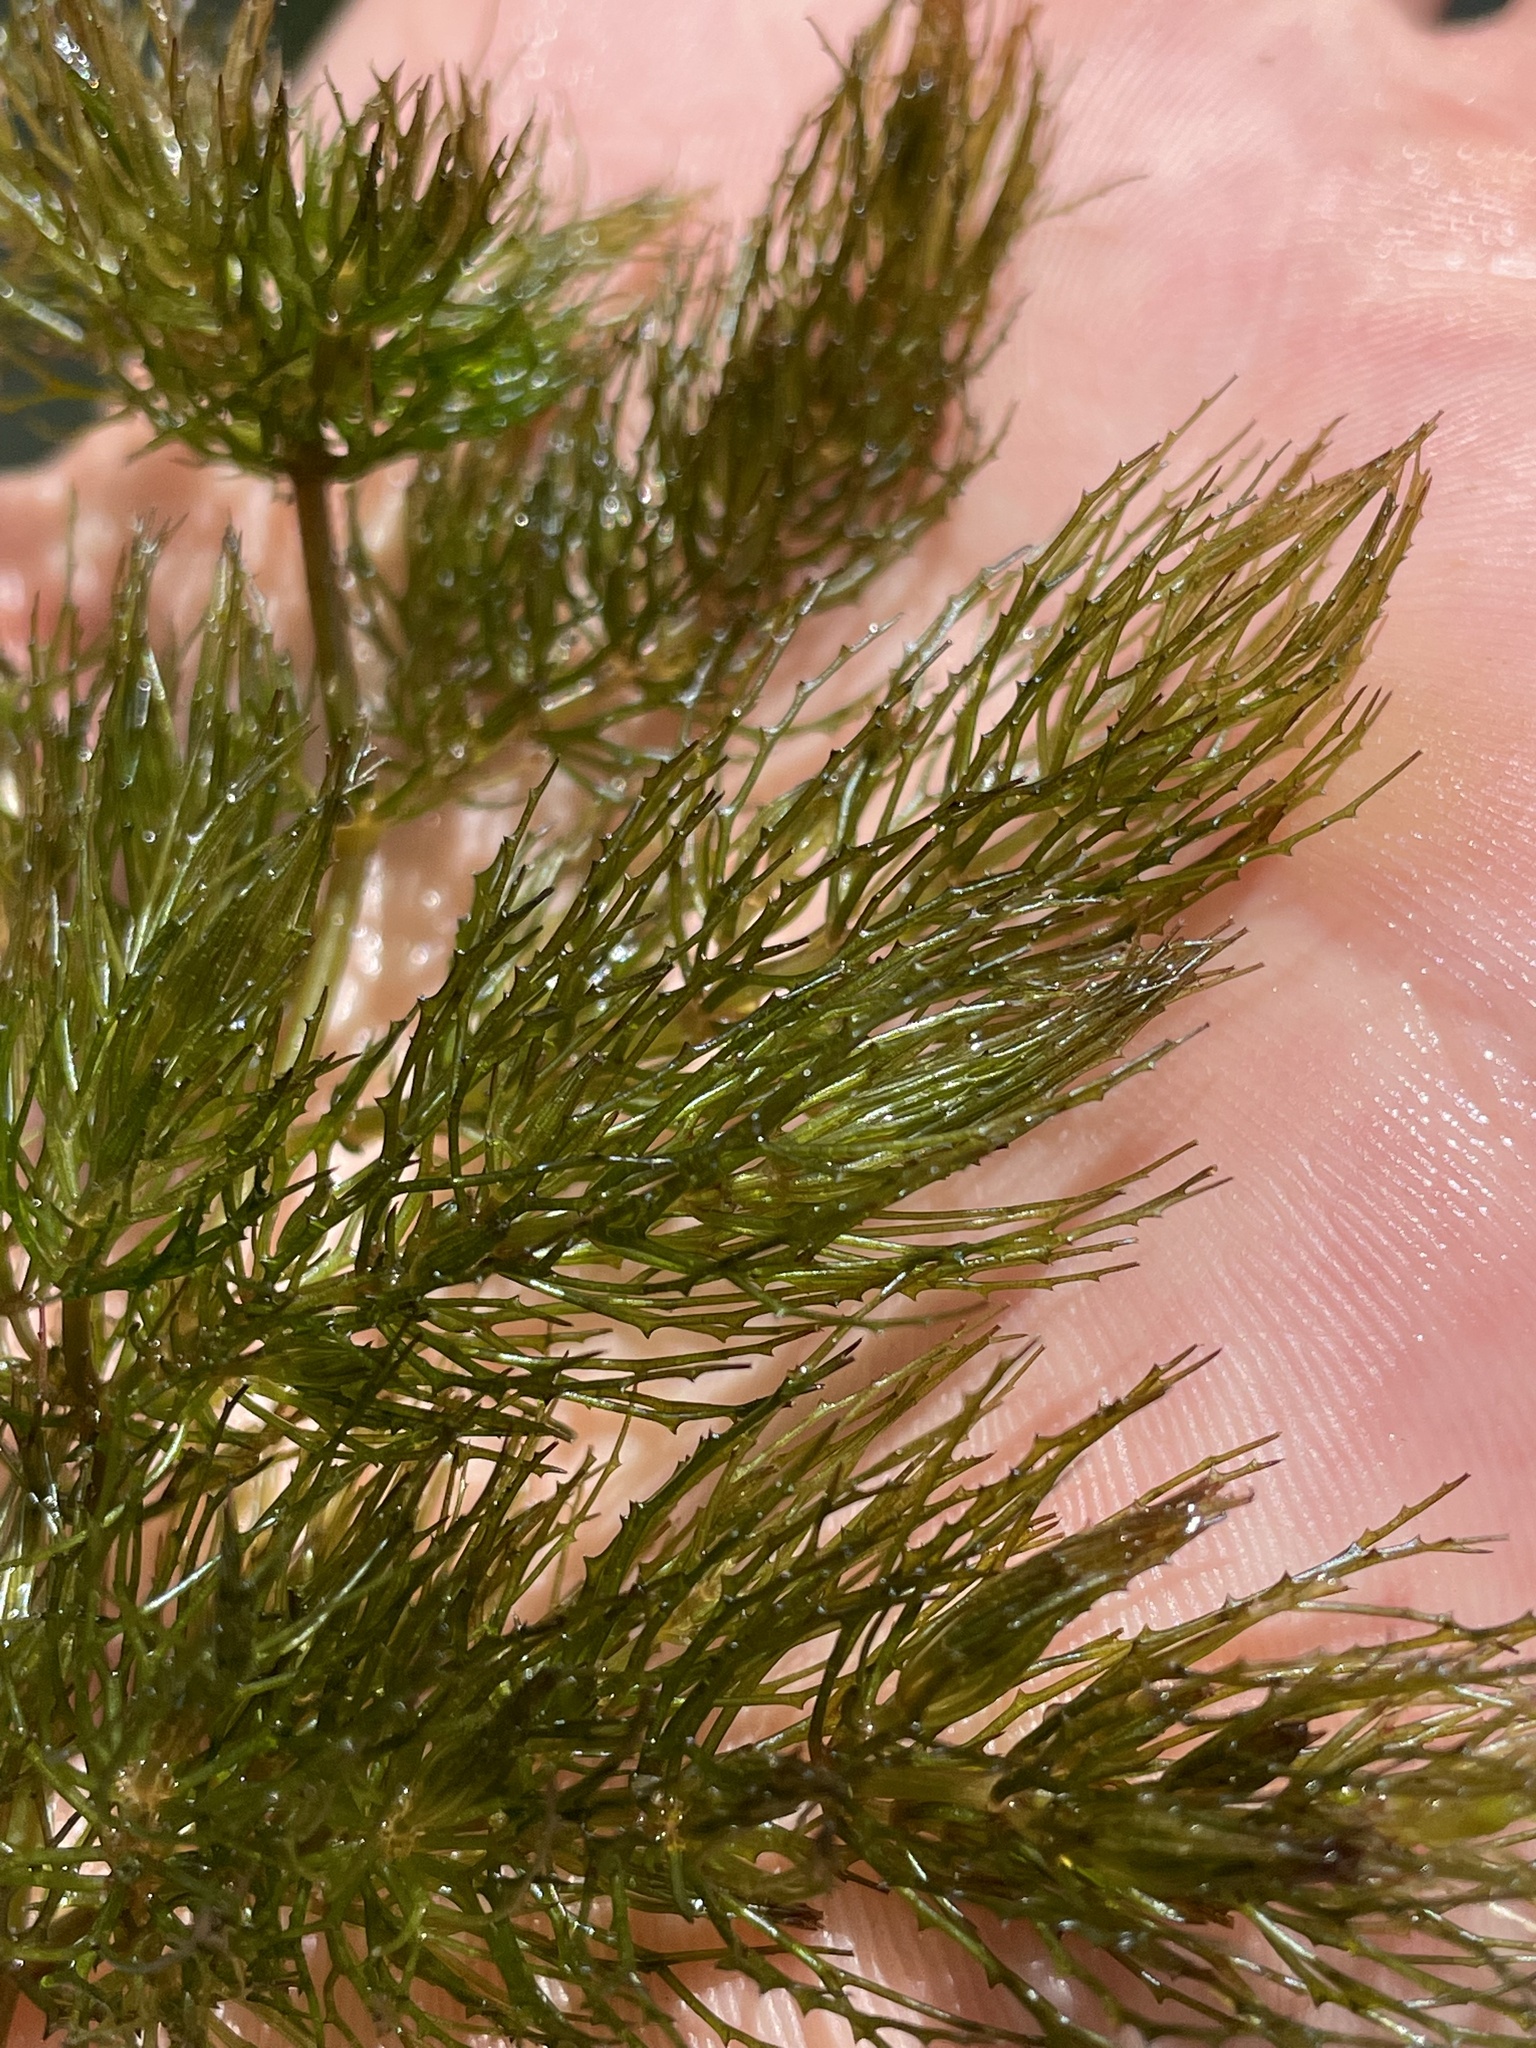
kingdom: Plantae
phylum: Tracheophyta
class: Magnoliopsida
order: Ceratophyllales
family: Ceratophyllaceae
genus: Ceratophyllum
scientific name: Ceratophyllum demersum
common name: Rigid hornwort
